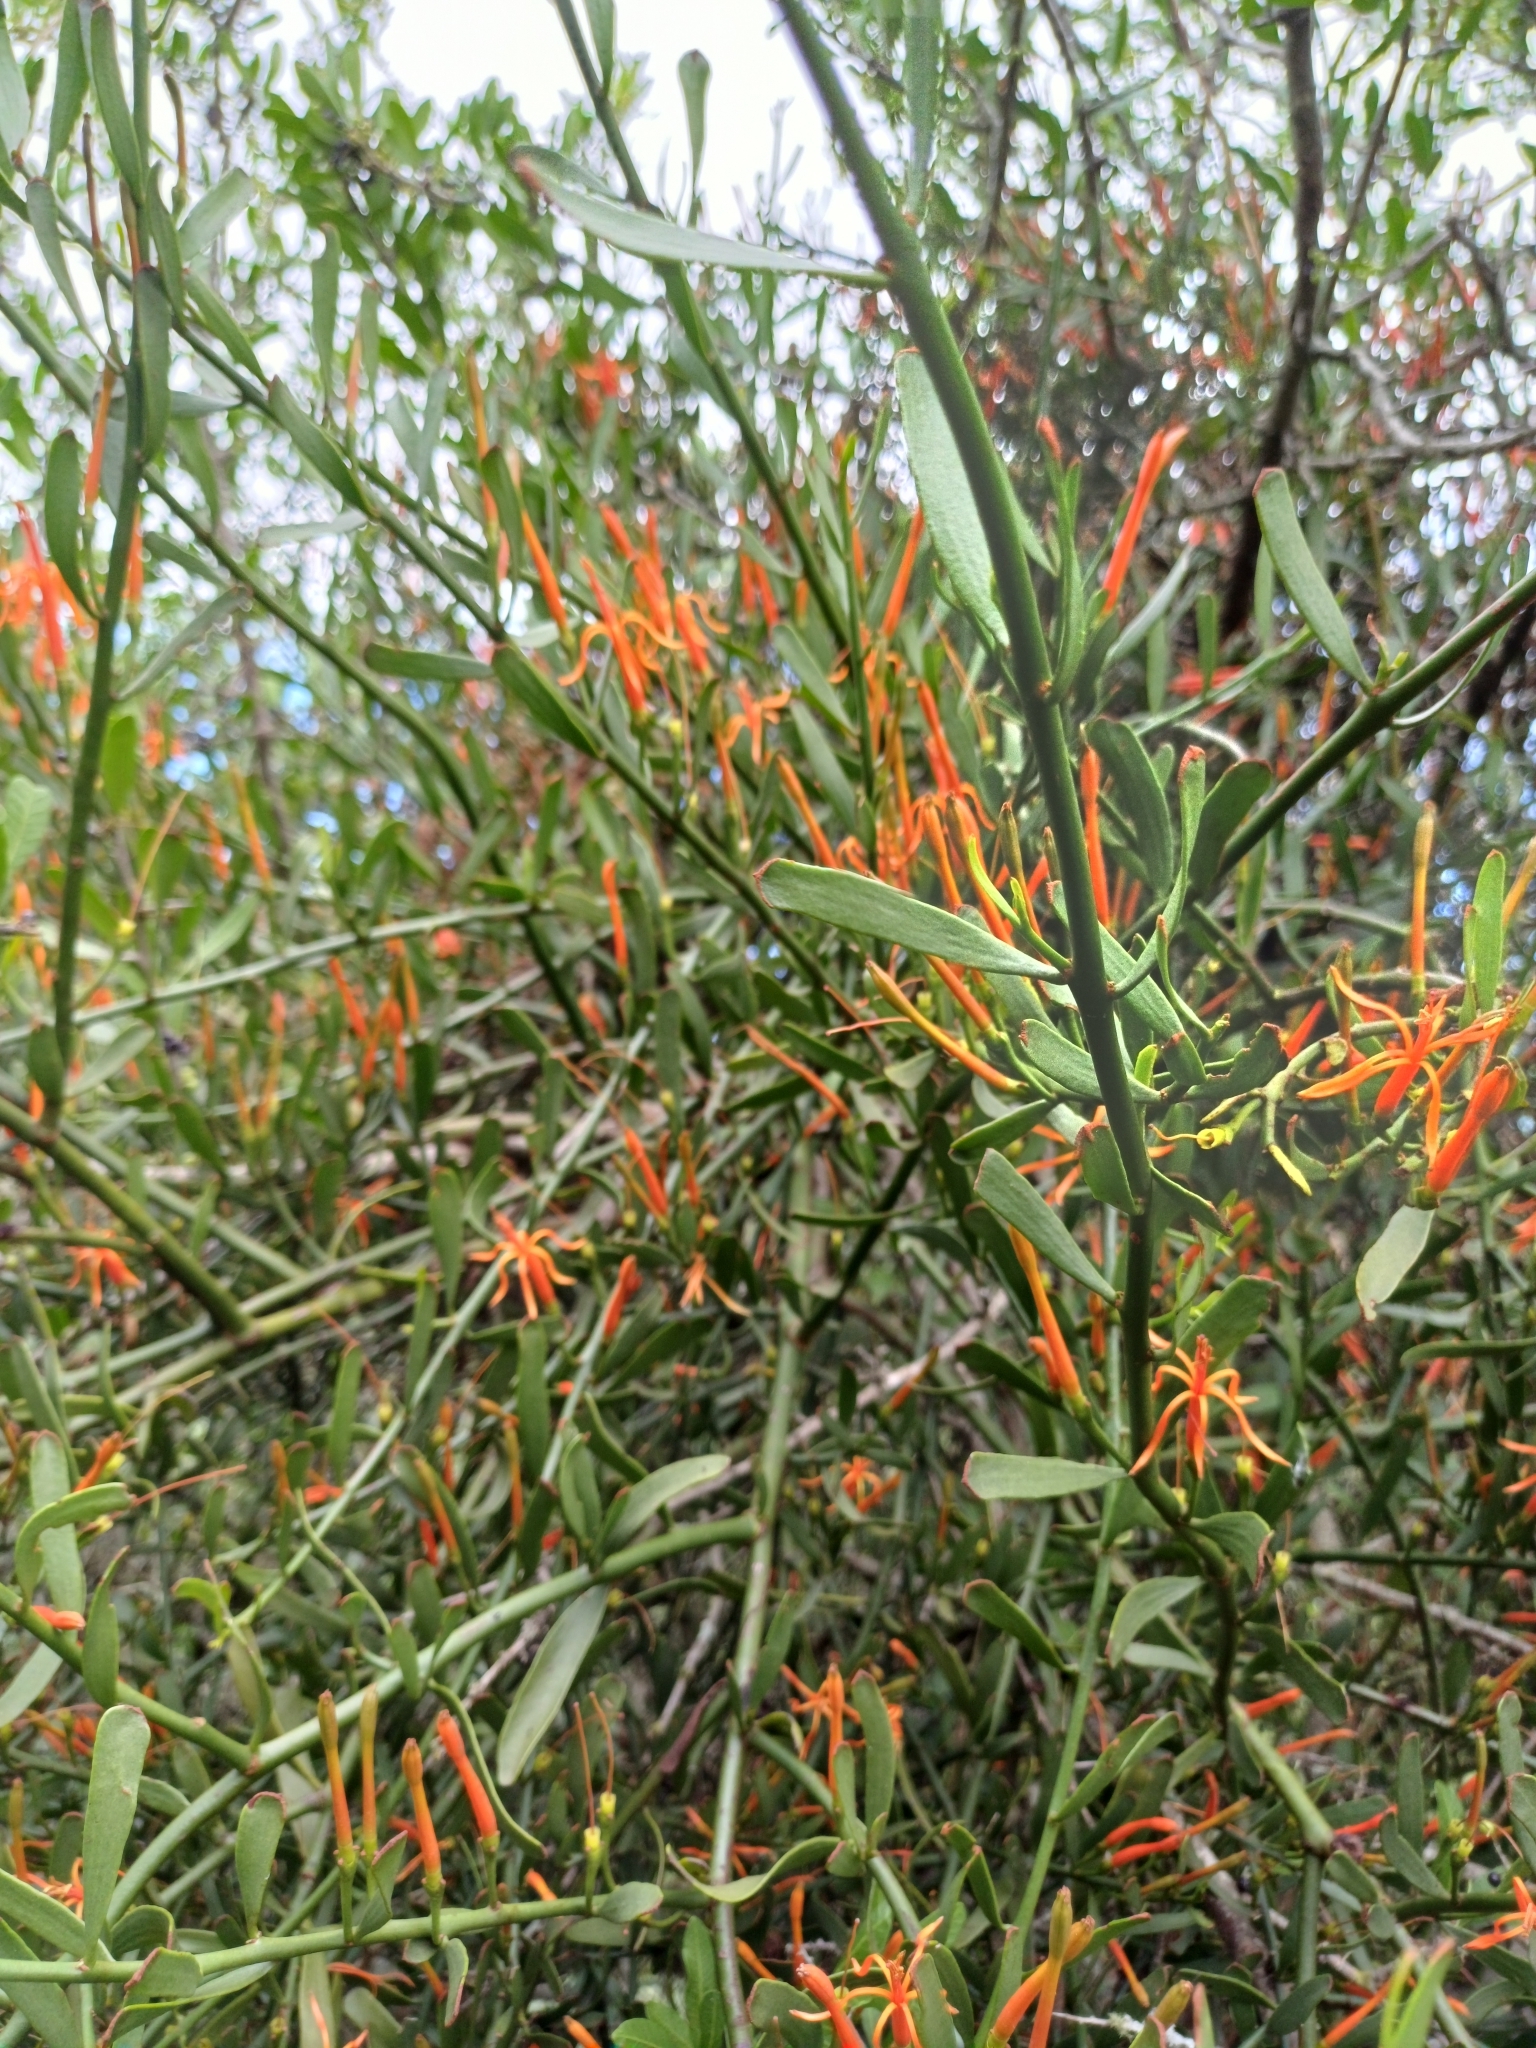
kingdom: Plantae
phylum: Tracheophyta
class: Magnoliopsida
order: Santalales
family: Loranthaceae
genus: Ligaria
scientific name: Ligaria cuneifolia
